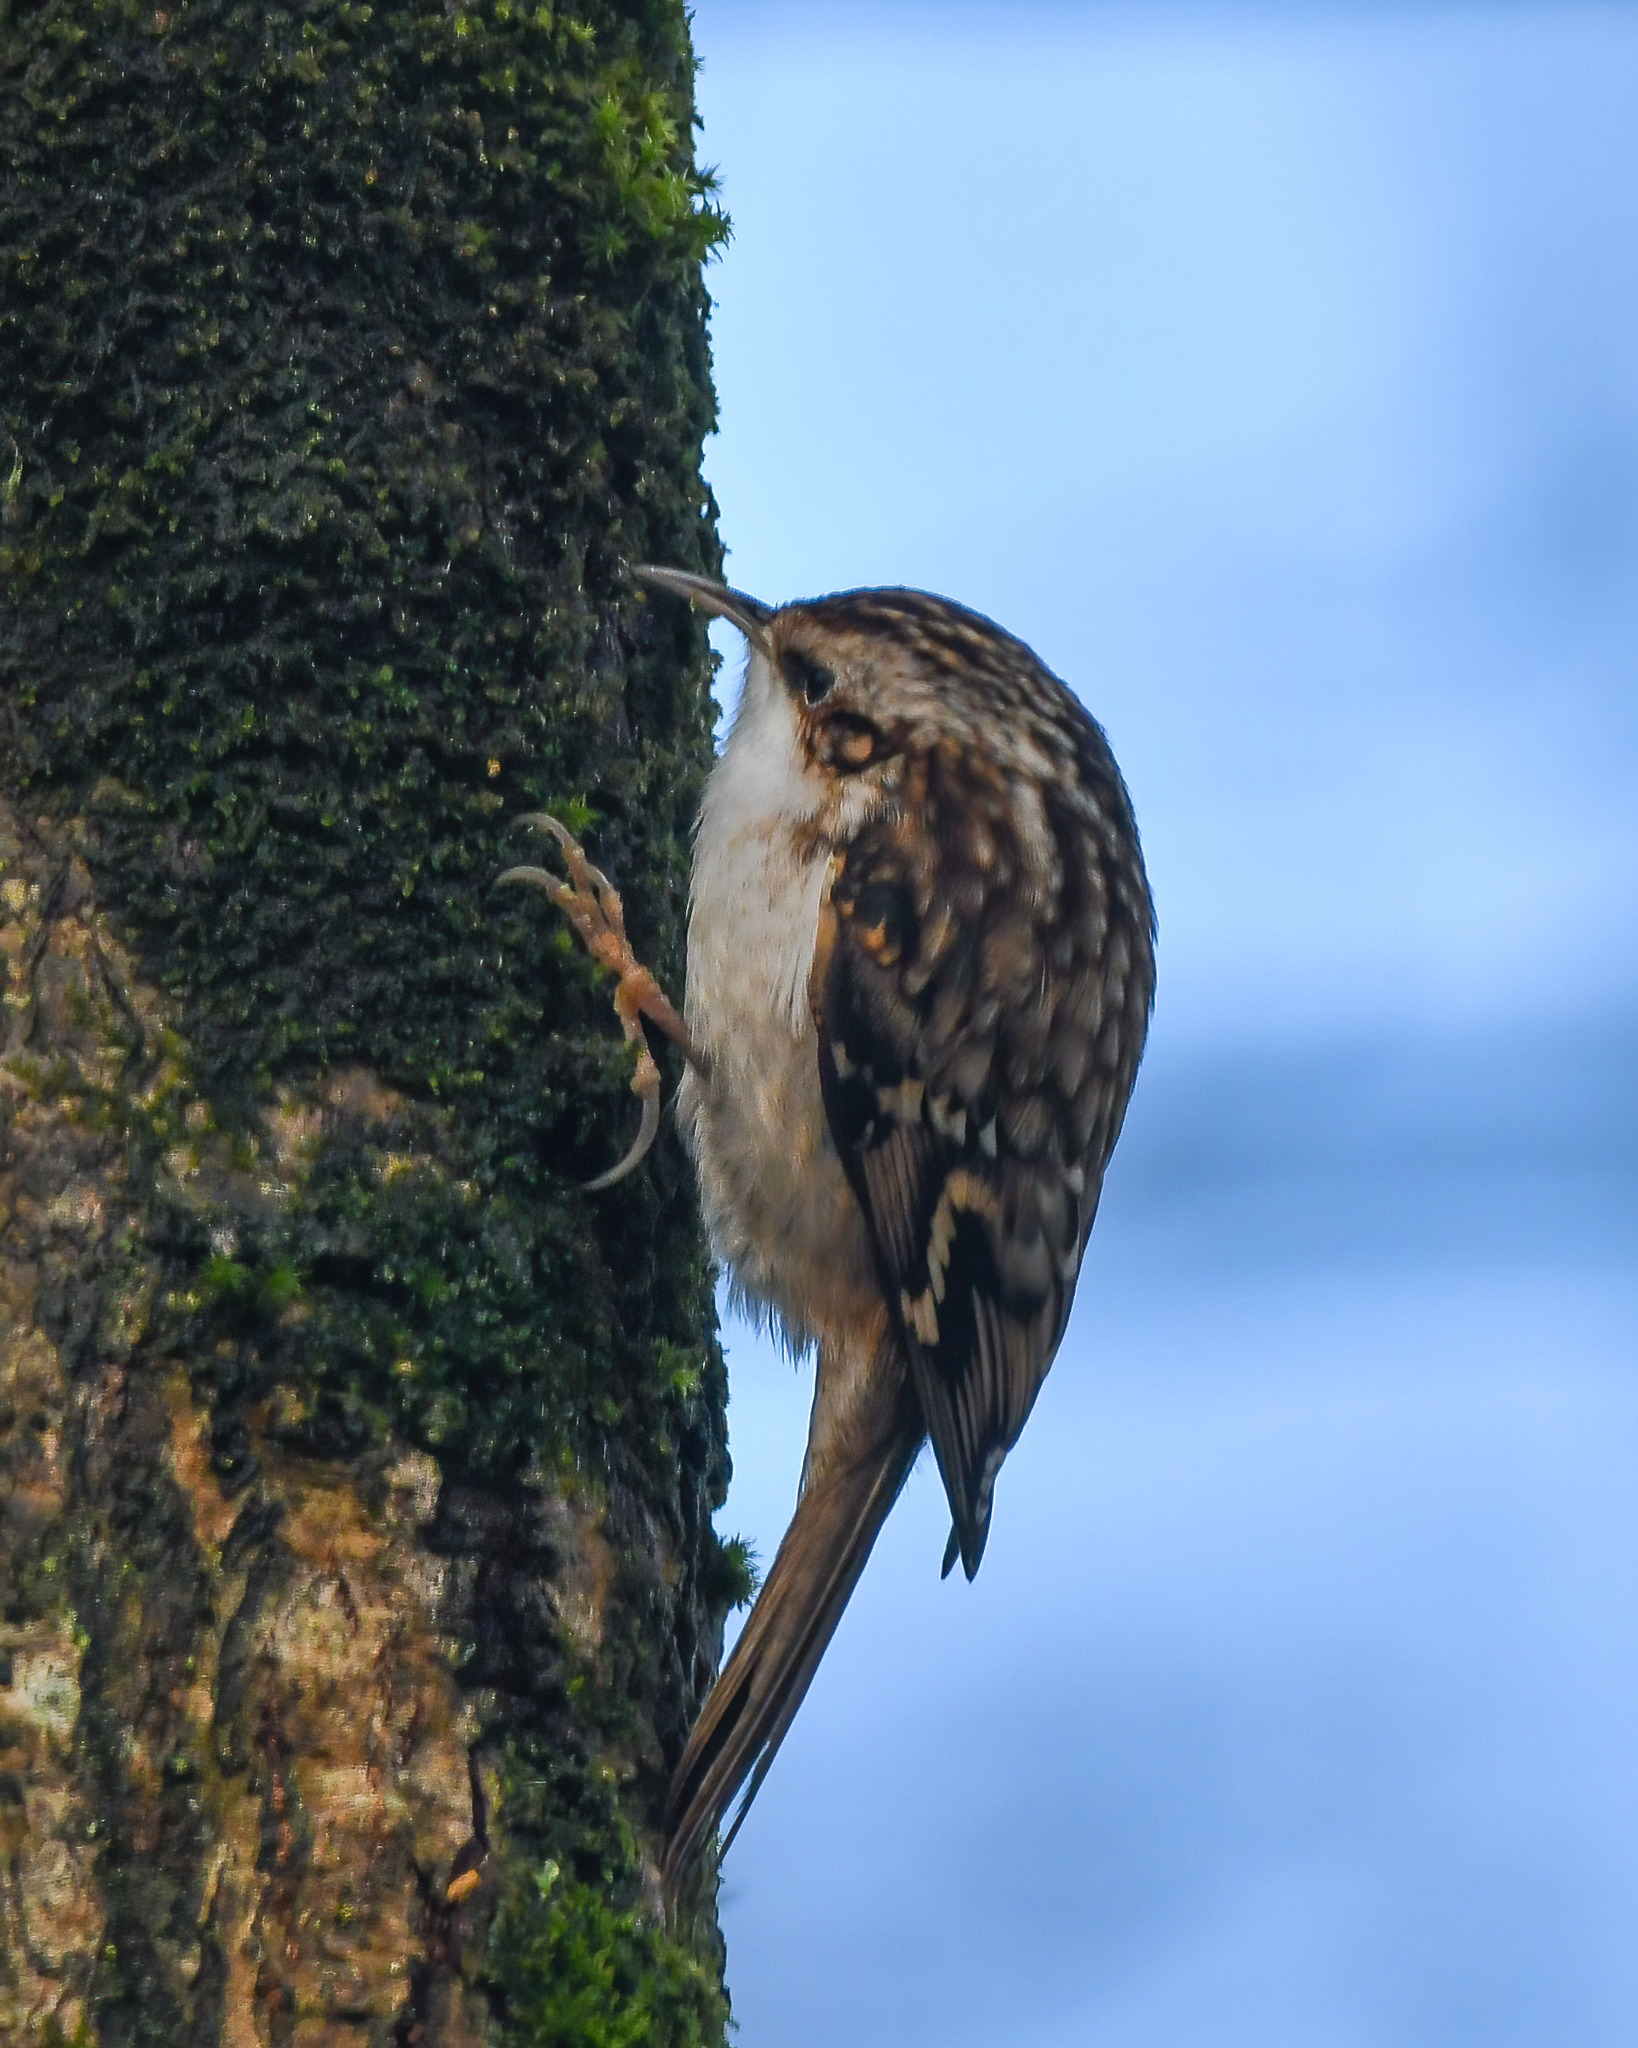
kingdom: Animalia
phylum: Chordata
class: Aves
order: Passeriformes
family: Certhiidae
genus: Certhia
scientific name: Certhia familiaris
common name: Eurasian treecreeper
